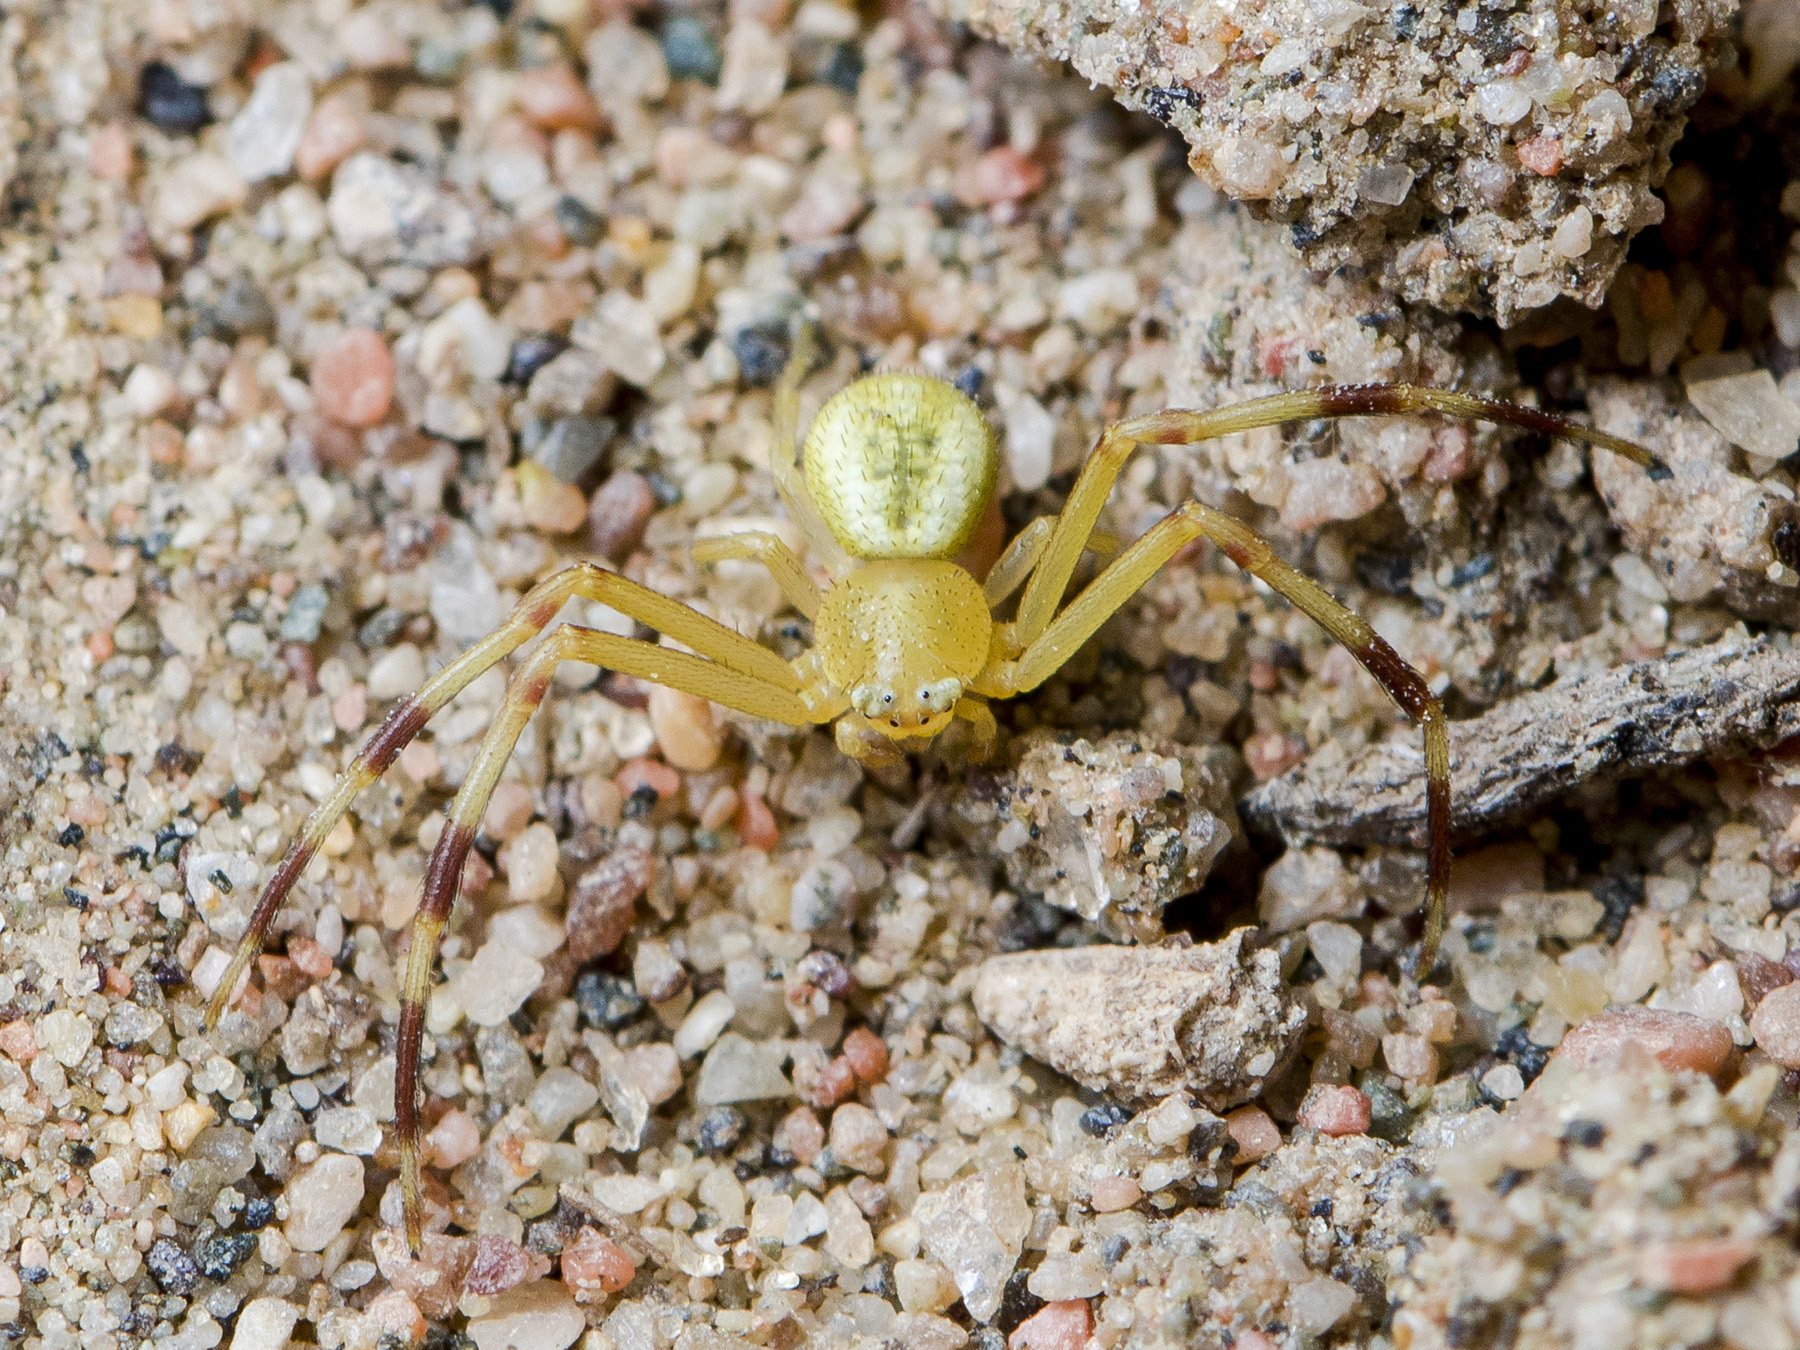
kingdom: Animalia
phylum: Arthropoda
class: Arachnida
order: Araneae
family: Thomisidae
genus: Runcinia
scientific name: Runcinia tarabayevi
